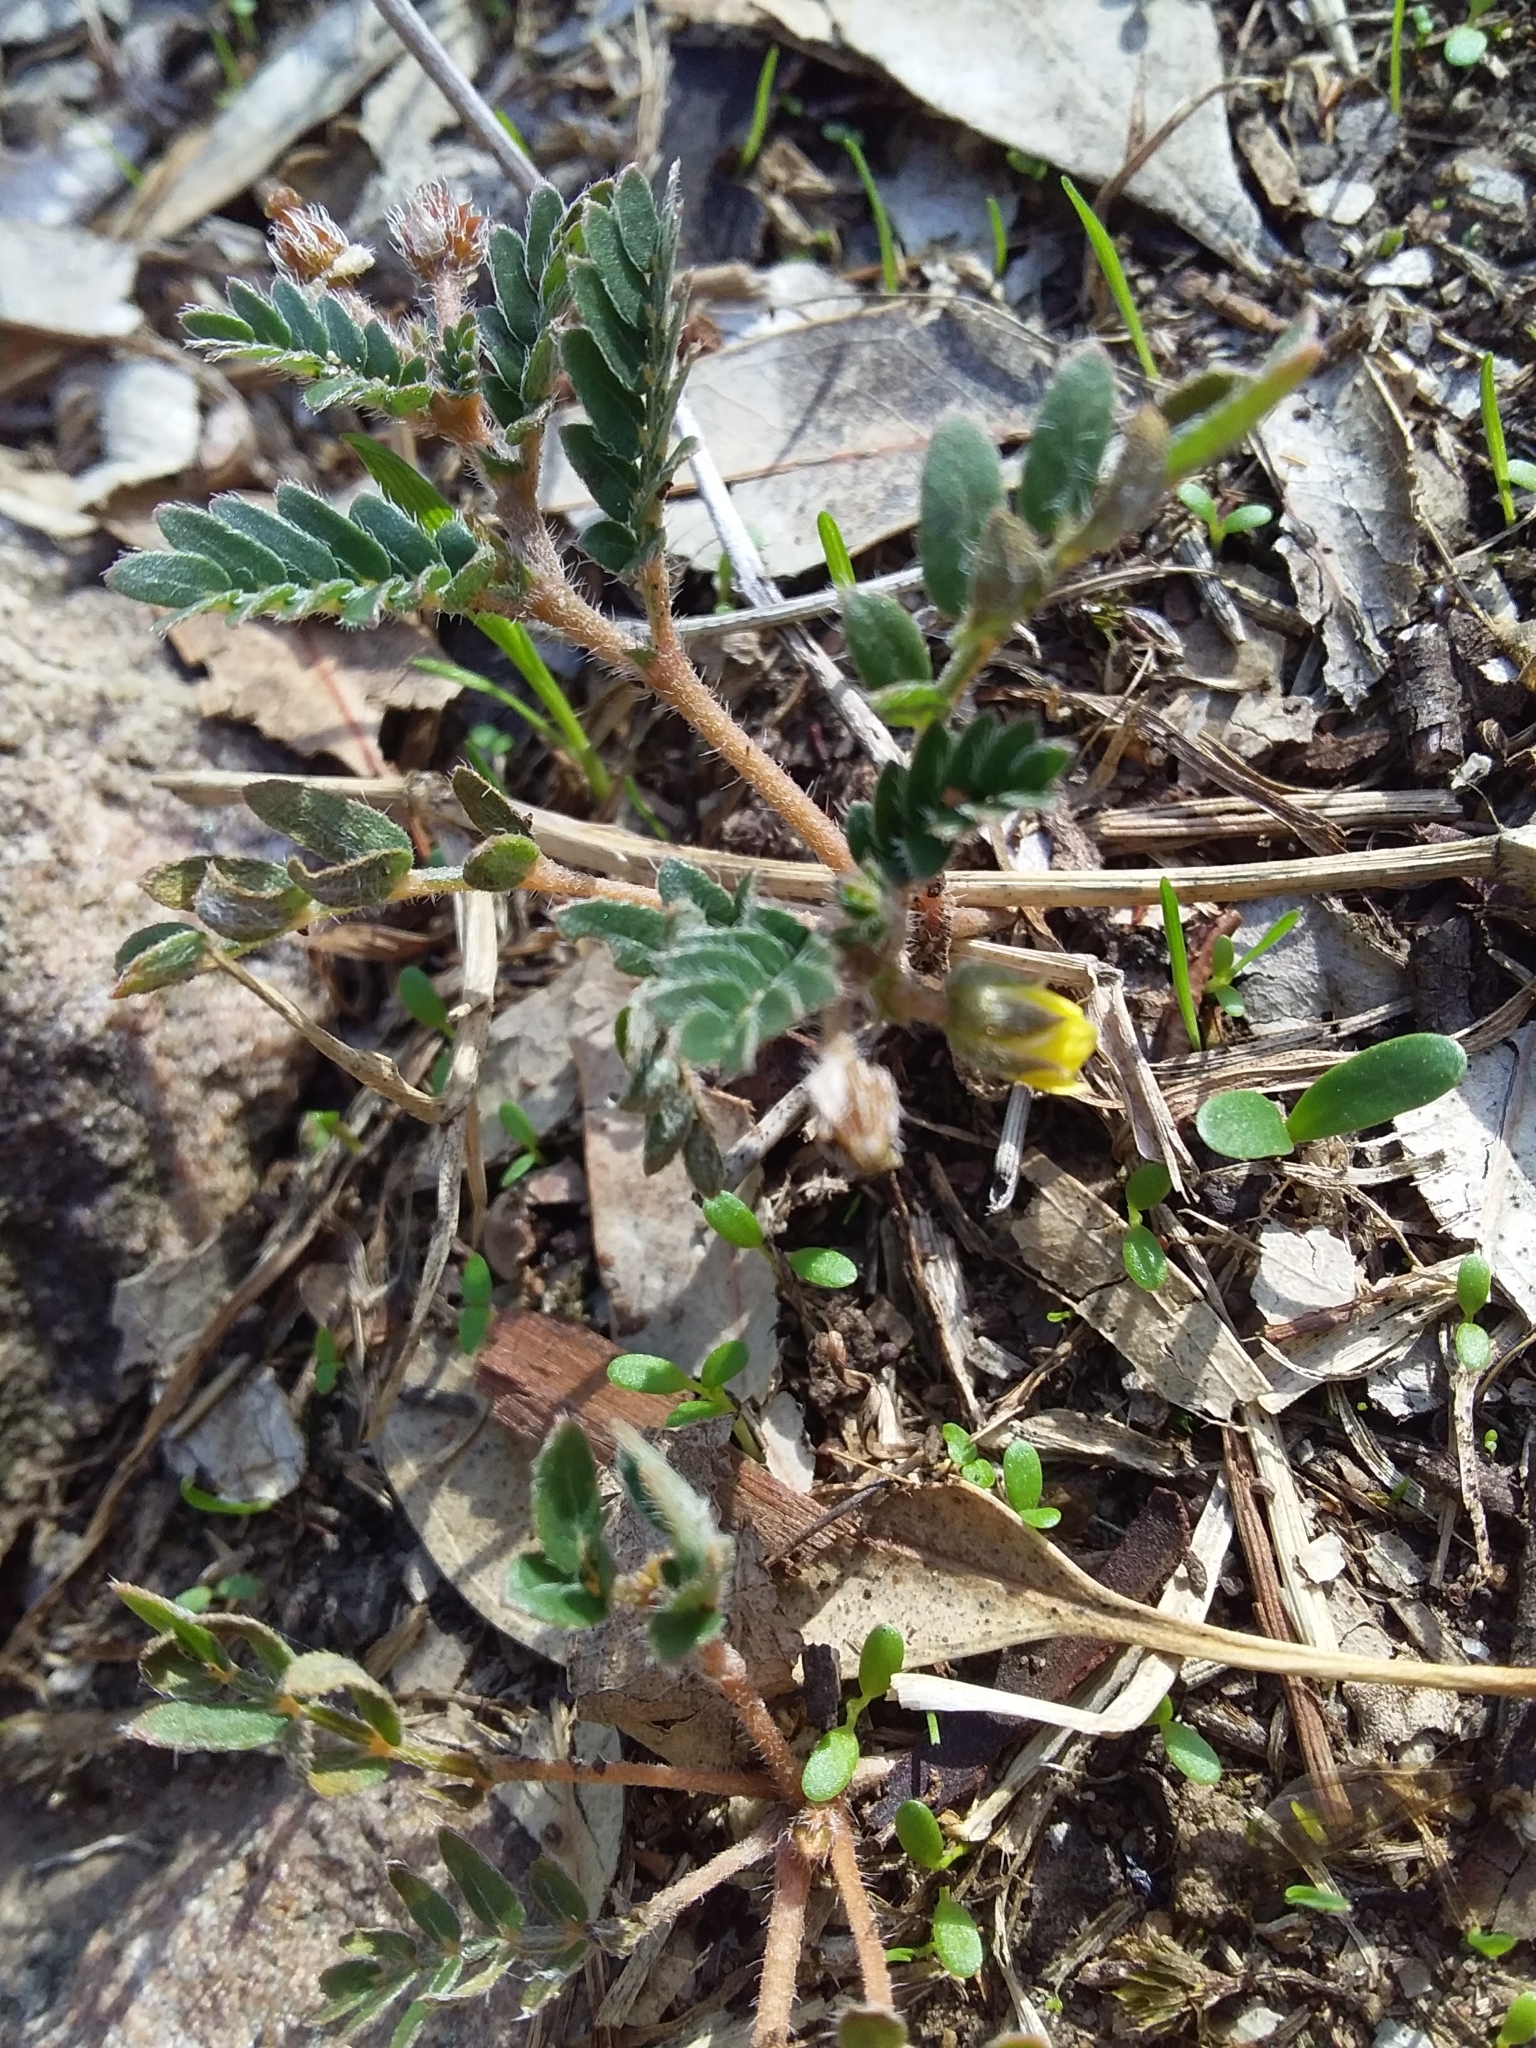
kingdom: Plantae
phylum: Tracheophyta
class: Magnoliopsida
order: Zygophyllales
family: Zygophyllaceae
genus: Tribulus
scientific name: Tribulus terrestris
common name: Puncturevine
